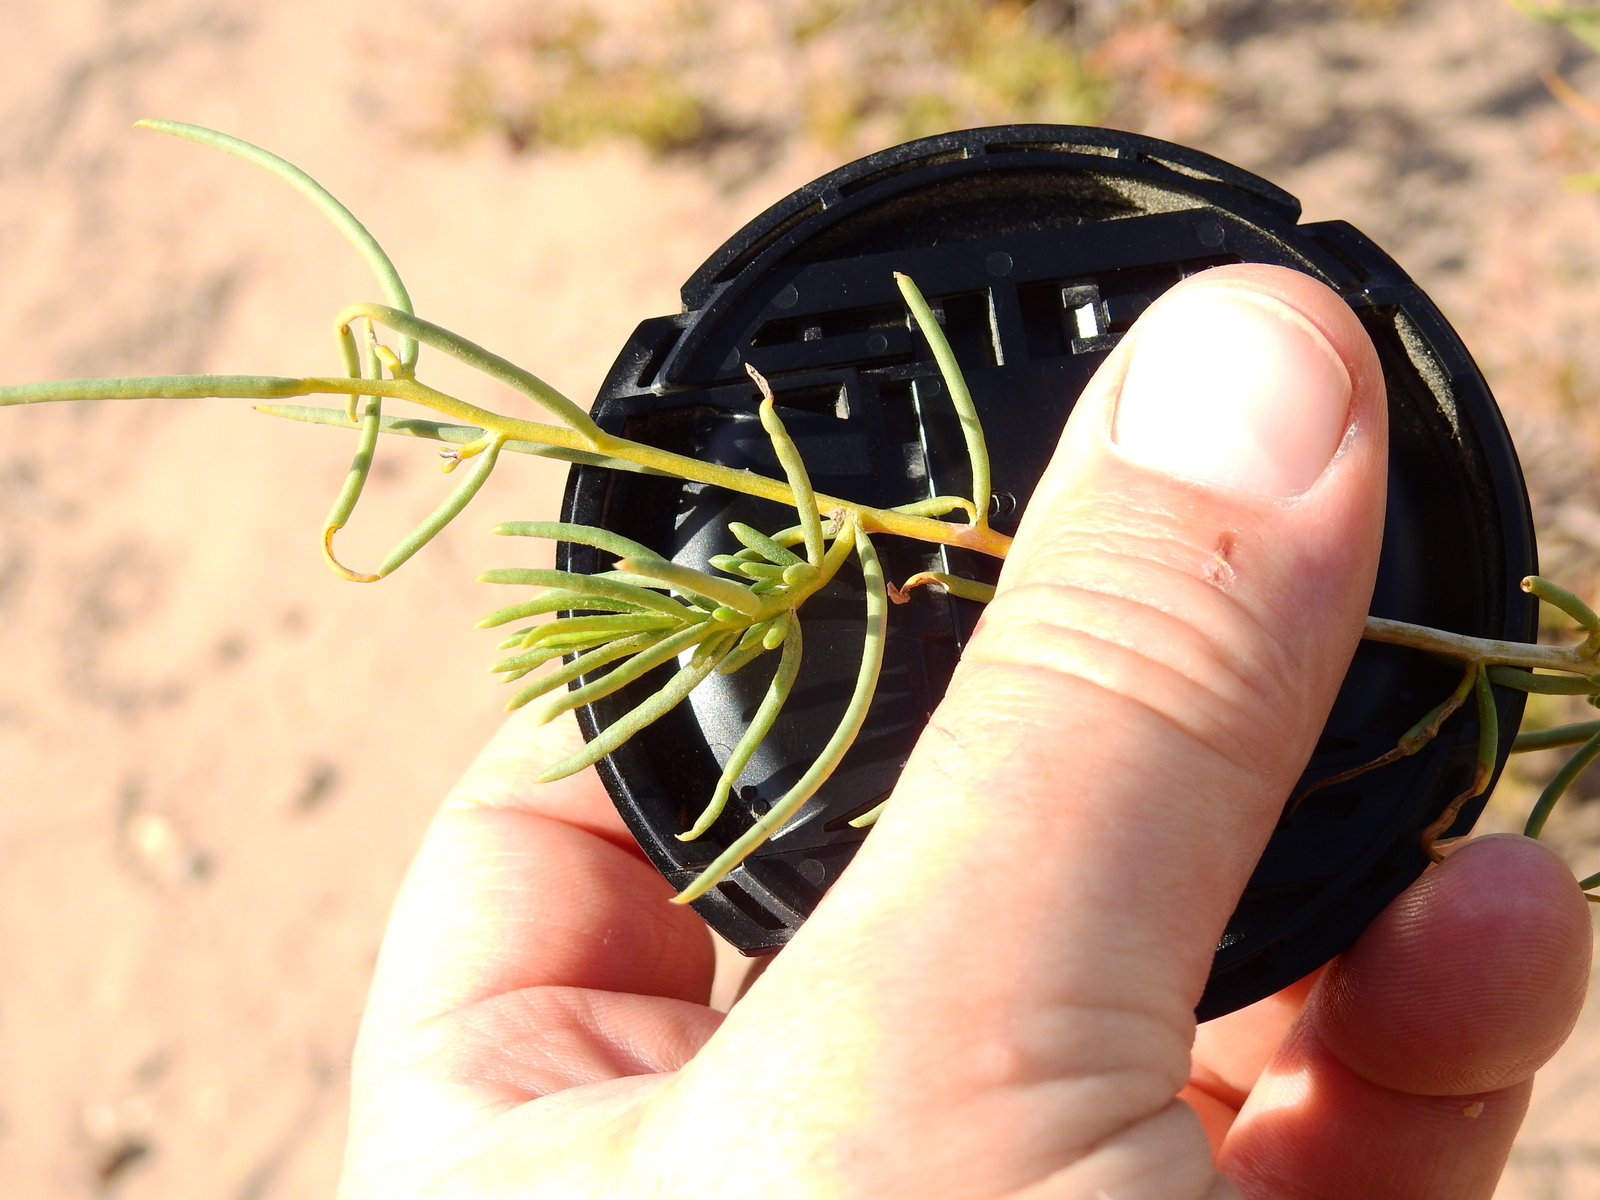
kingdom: Plantae
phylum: Tracheophyta
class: Magnoliopsida
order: Asterales
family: Asteraceae
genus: Senecio
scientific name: Senecio subulatus
